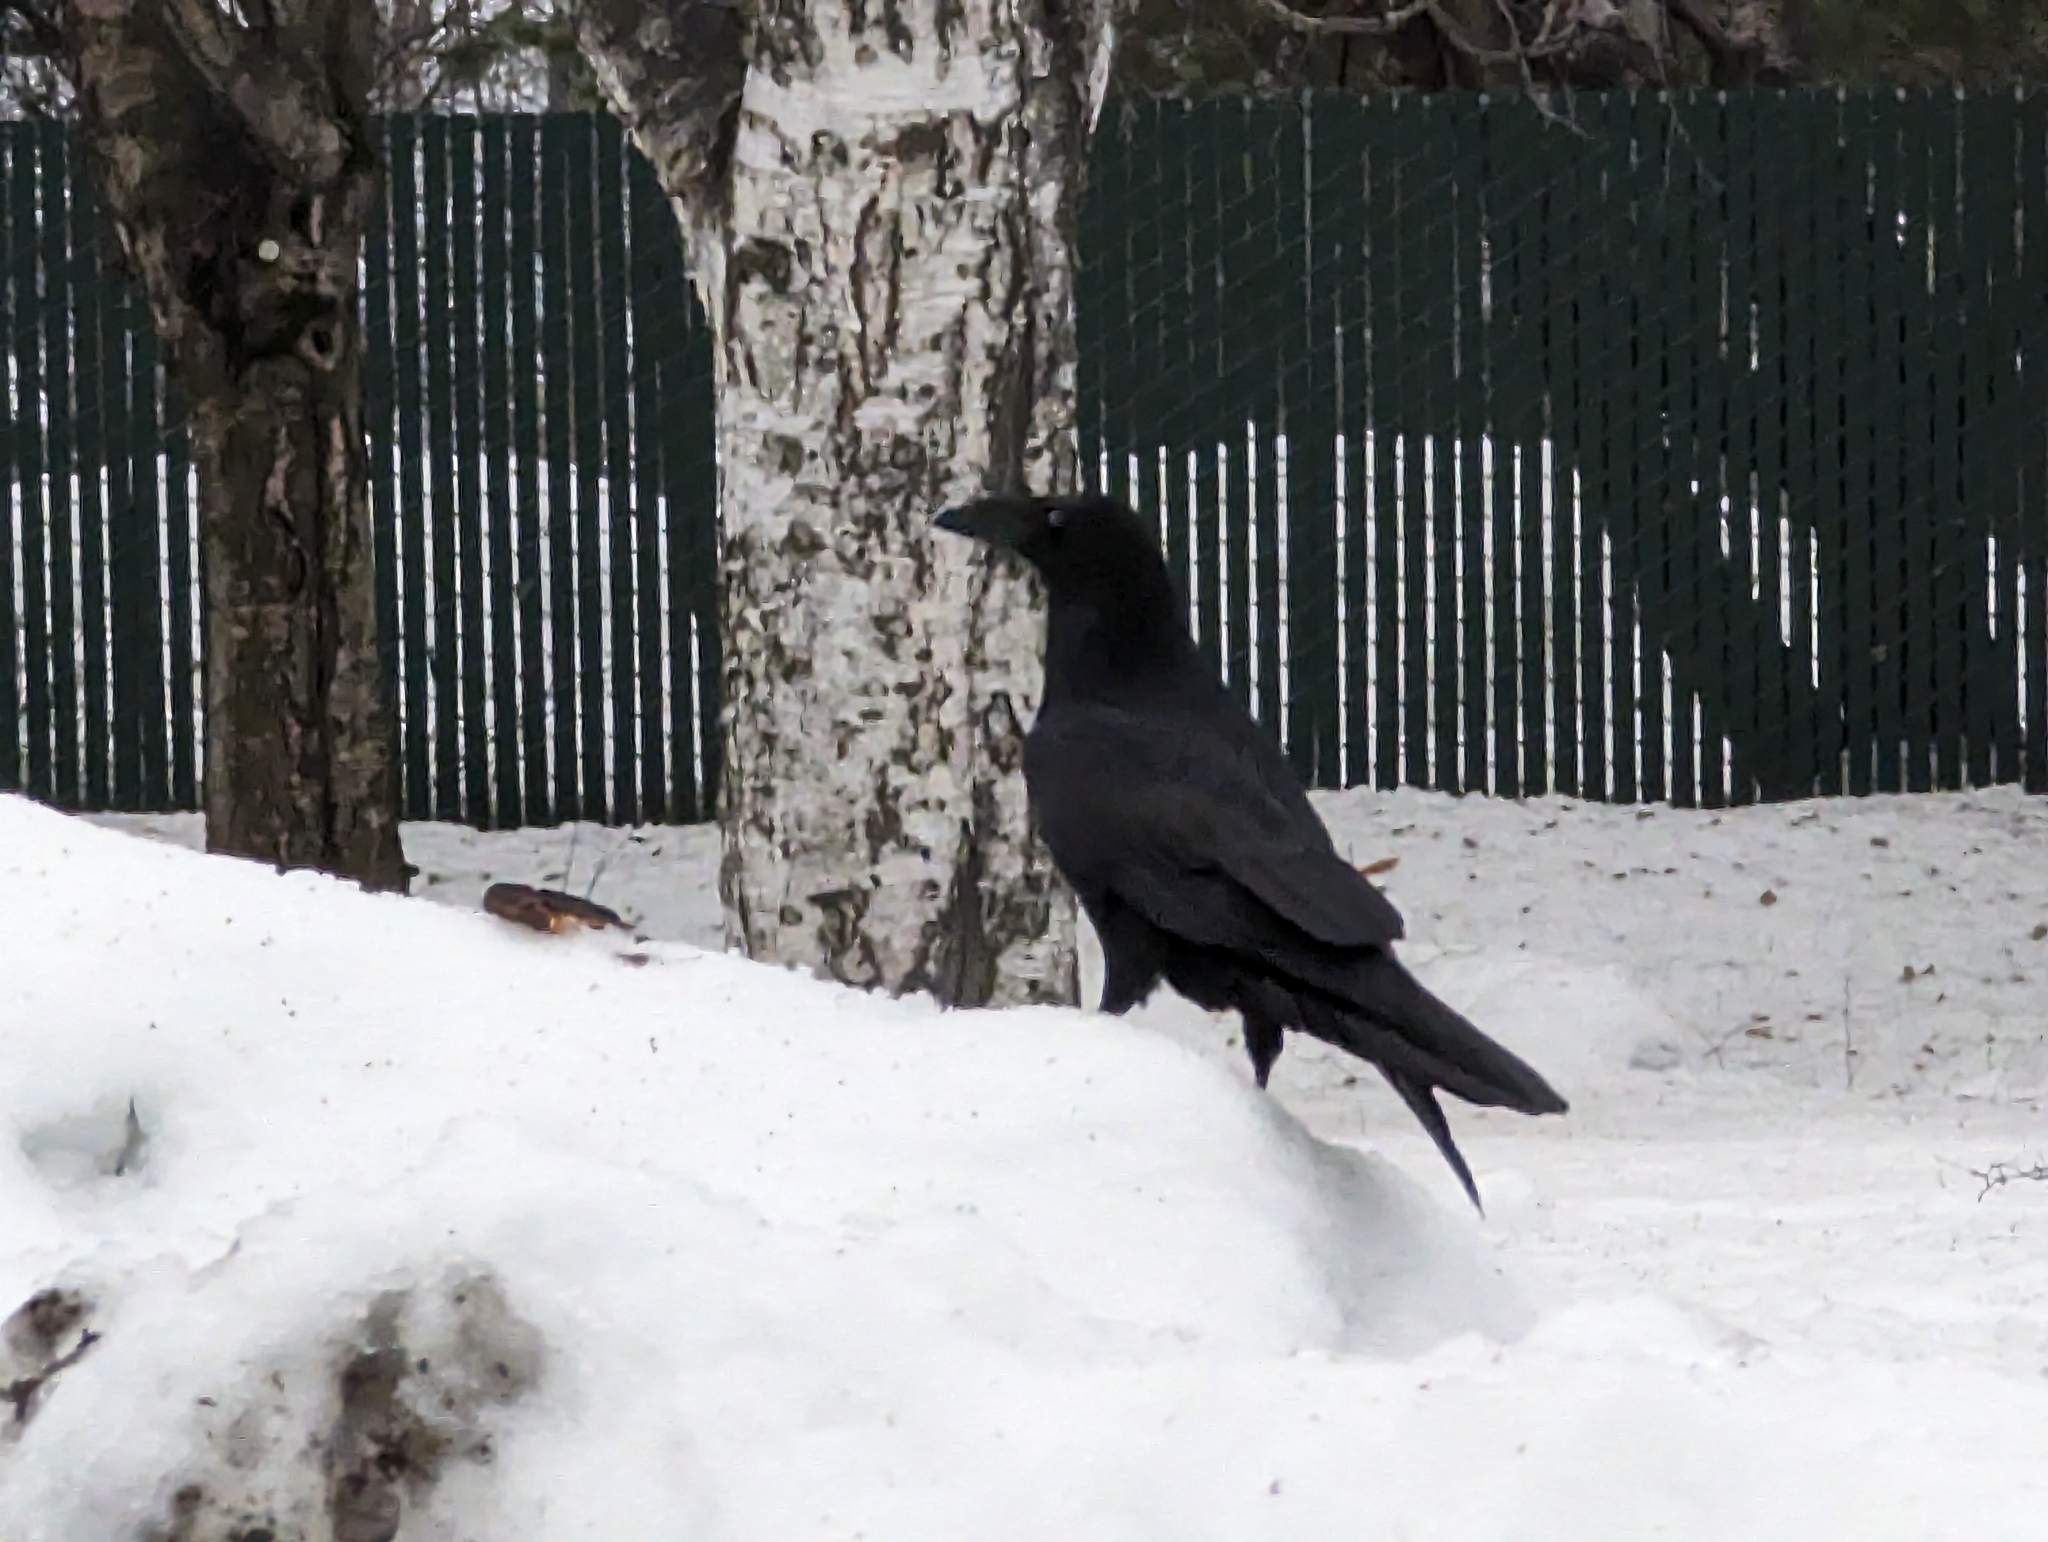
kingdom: Animalia
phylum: Chordata
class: Aves
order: Passeriformes
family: Corvidae
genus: Corvus
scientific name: Corvus corax
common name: Common raven
